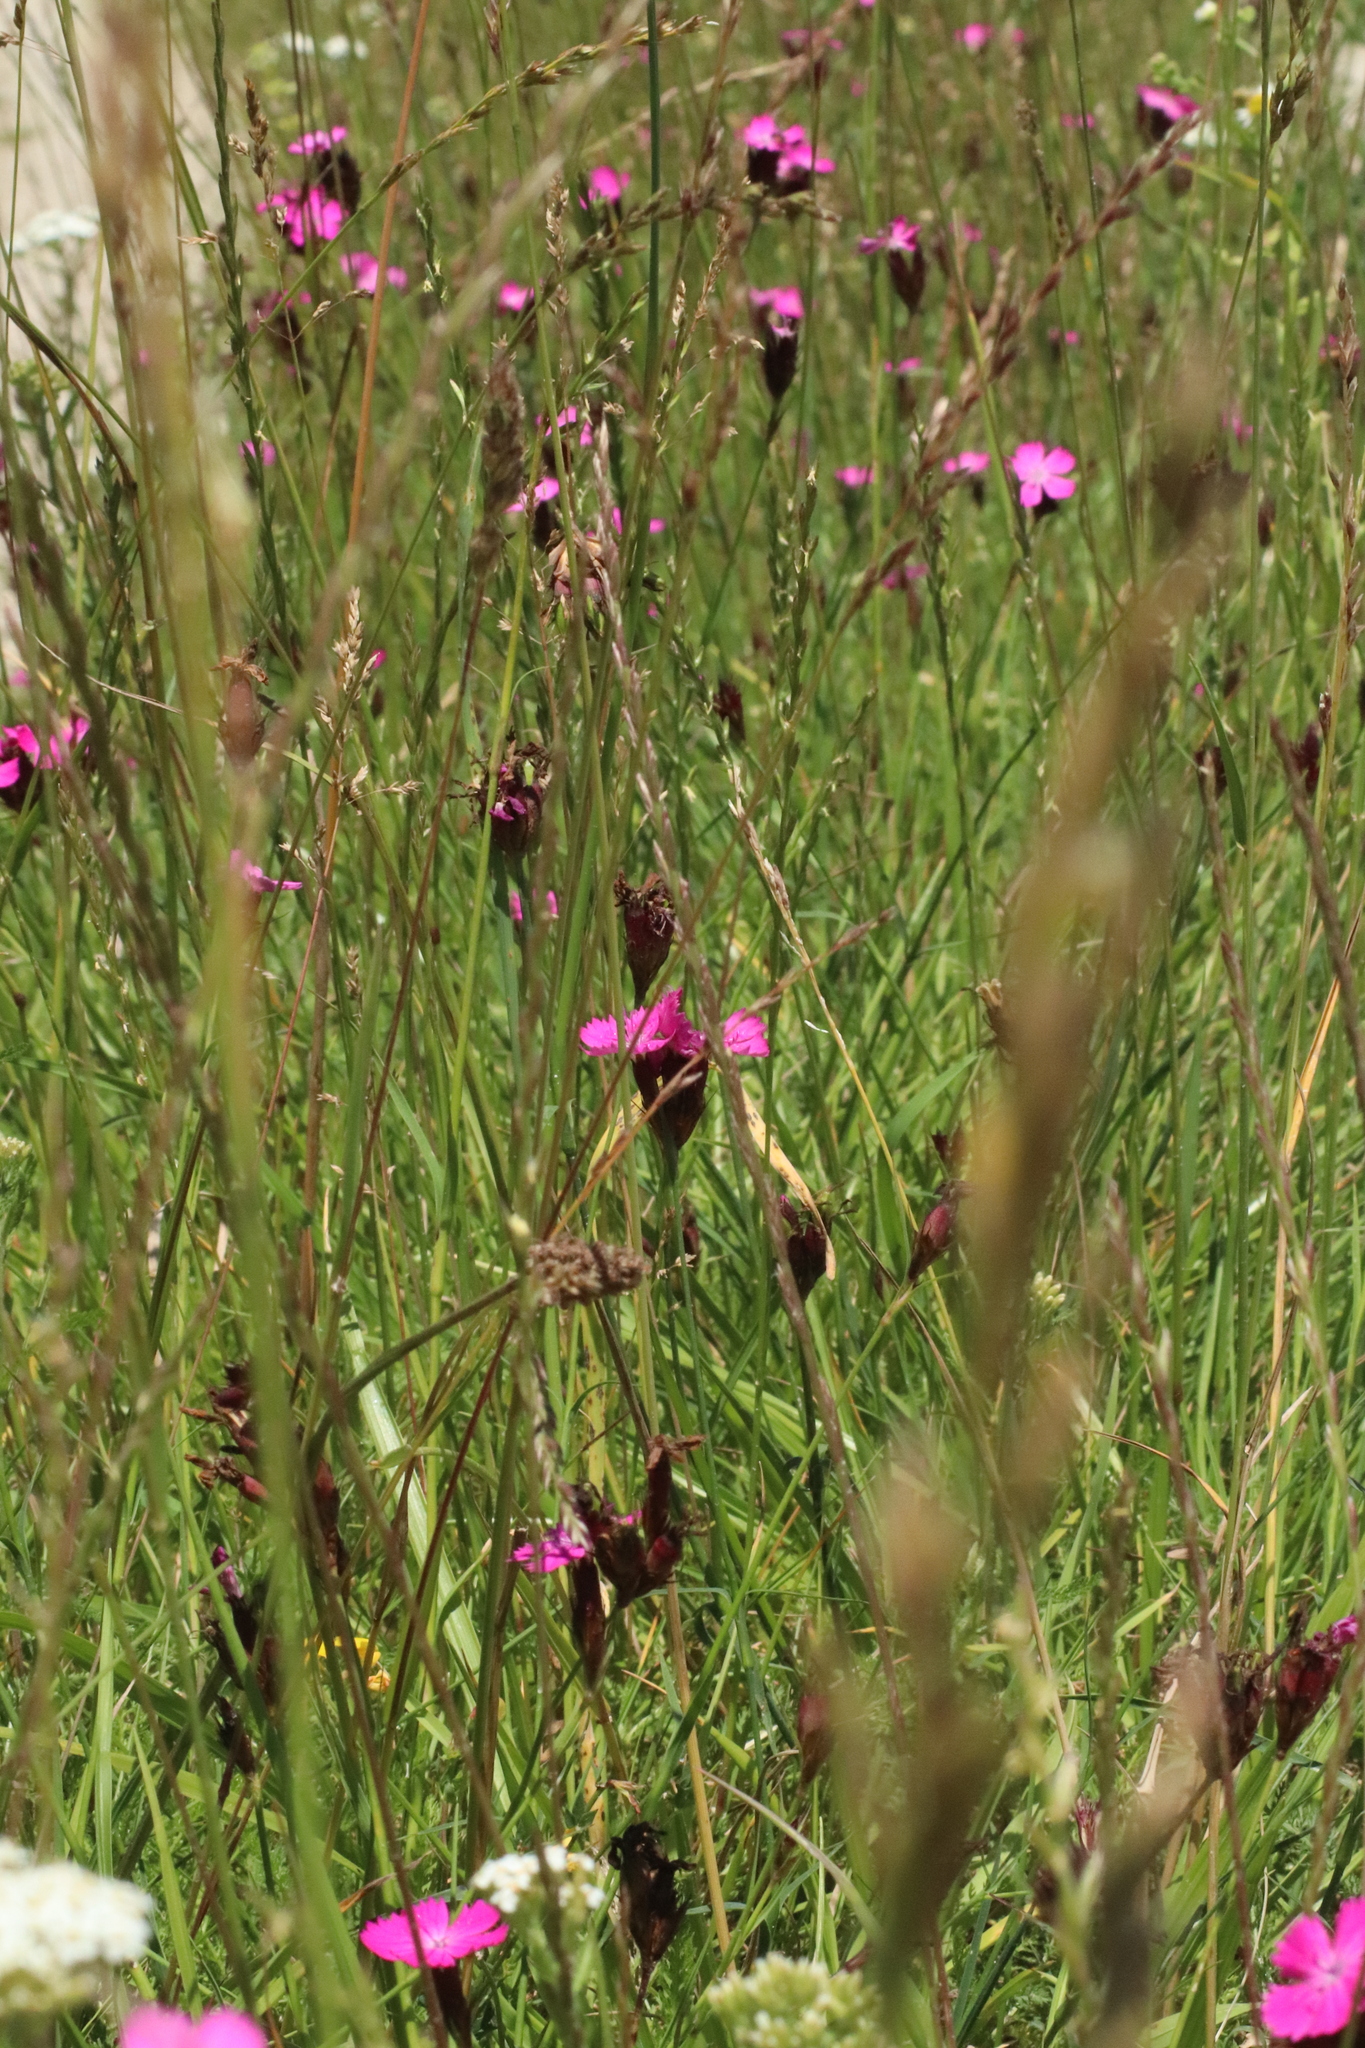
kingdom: Plantae
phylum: Tracheophyta
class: Magnoliopsida
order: Caryophyllales
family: Caryophyllaceae
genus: Dianthus
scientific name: Dianthus carthusianorum
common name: Carthusian pink
